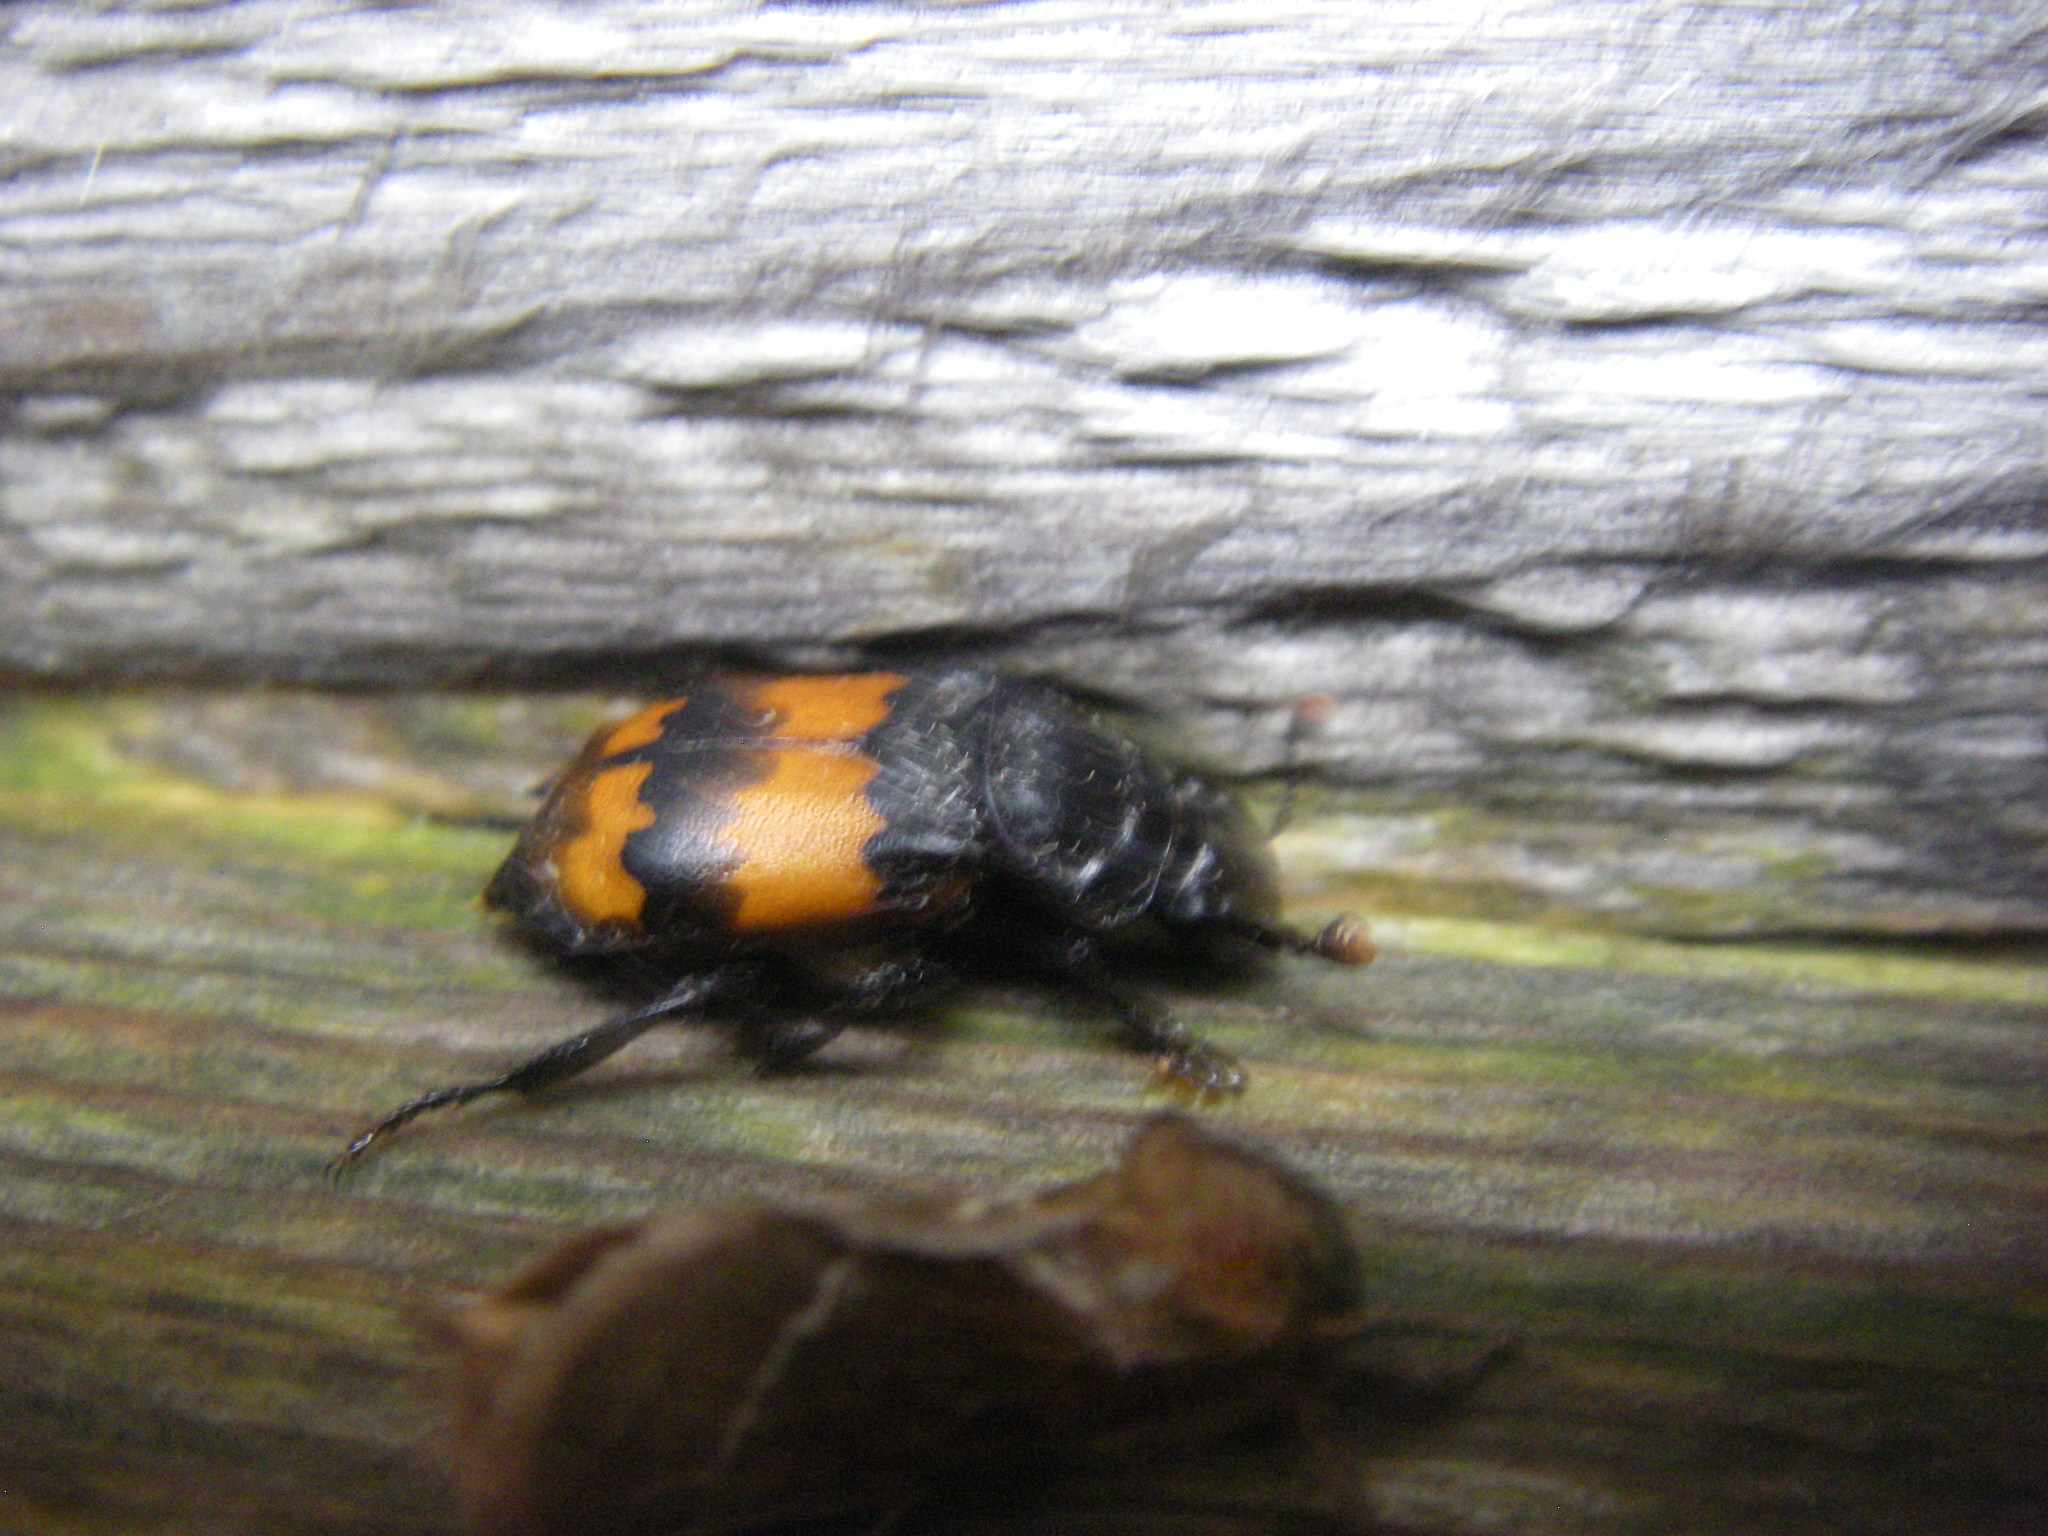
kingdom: Animalia
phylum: Arthropoda
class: Insecta
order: Coleoptera
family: Staphylinidae
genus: Nicrophorus
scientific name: Nicrophorus investigator
